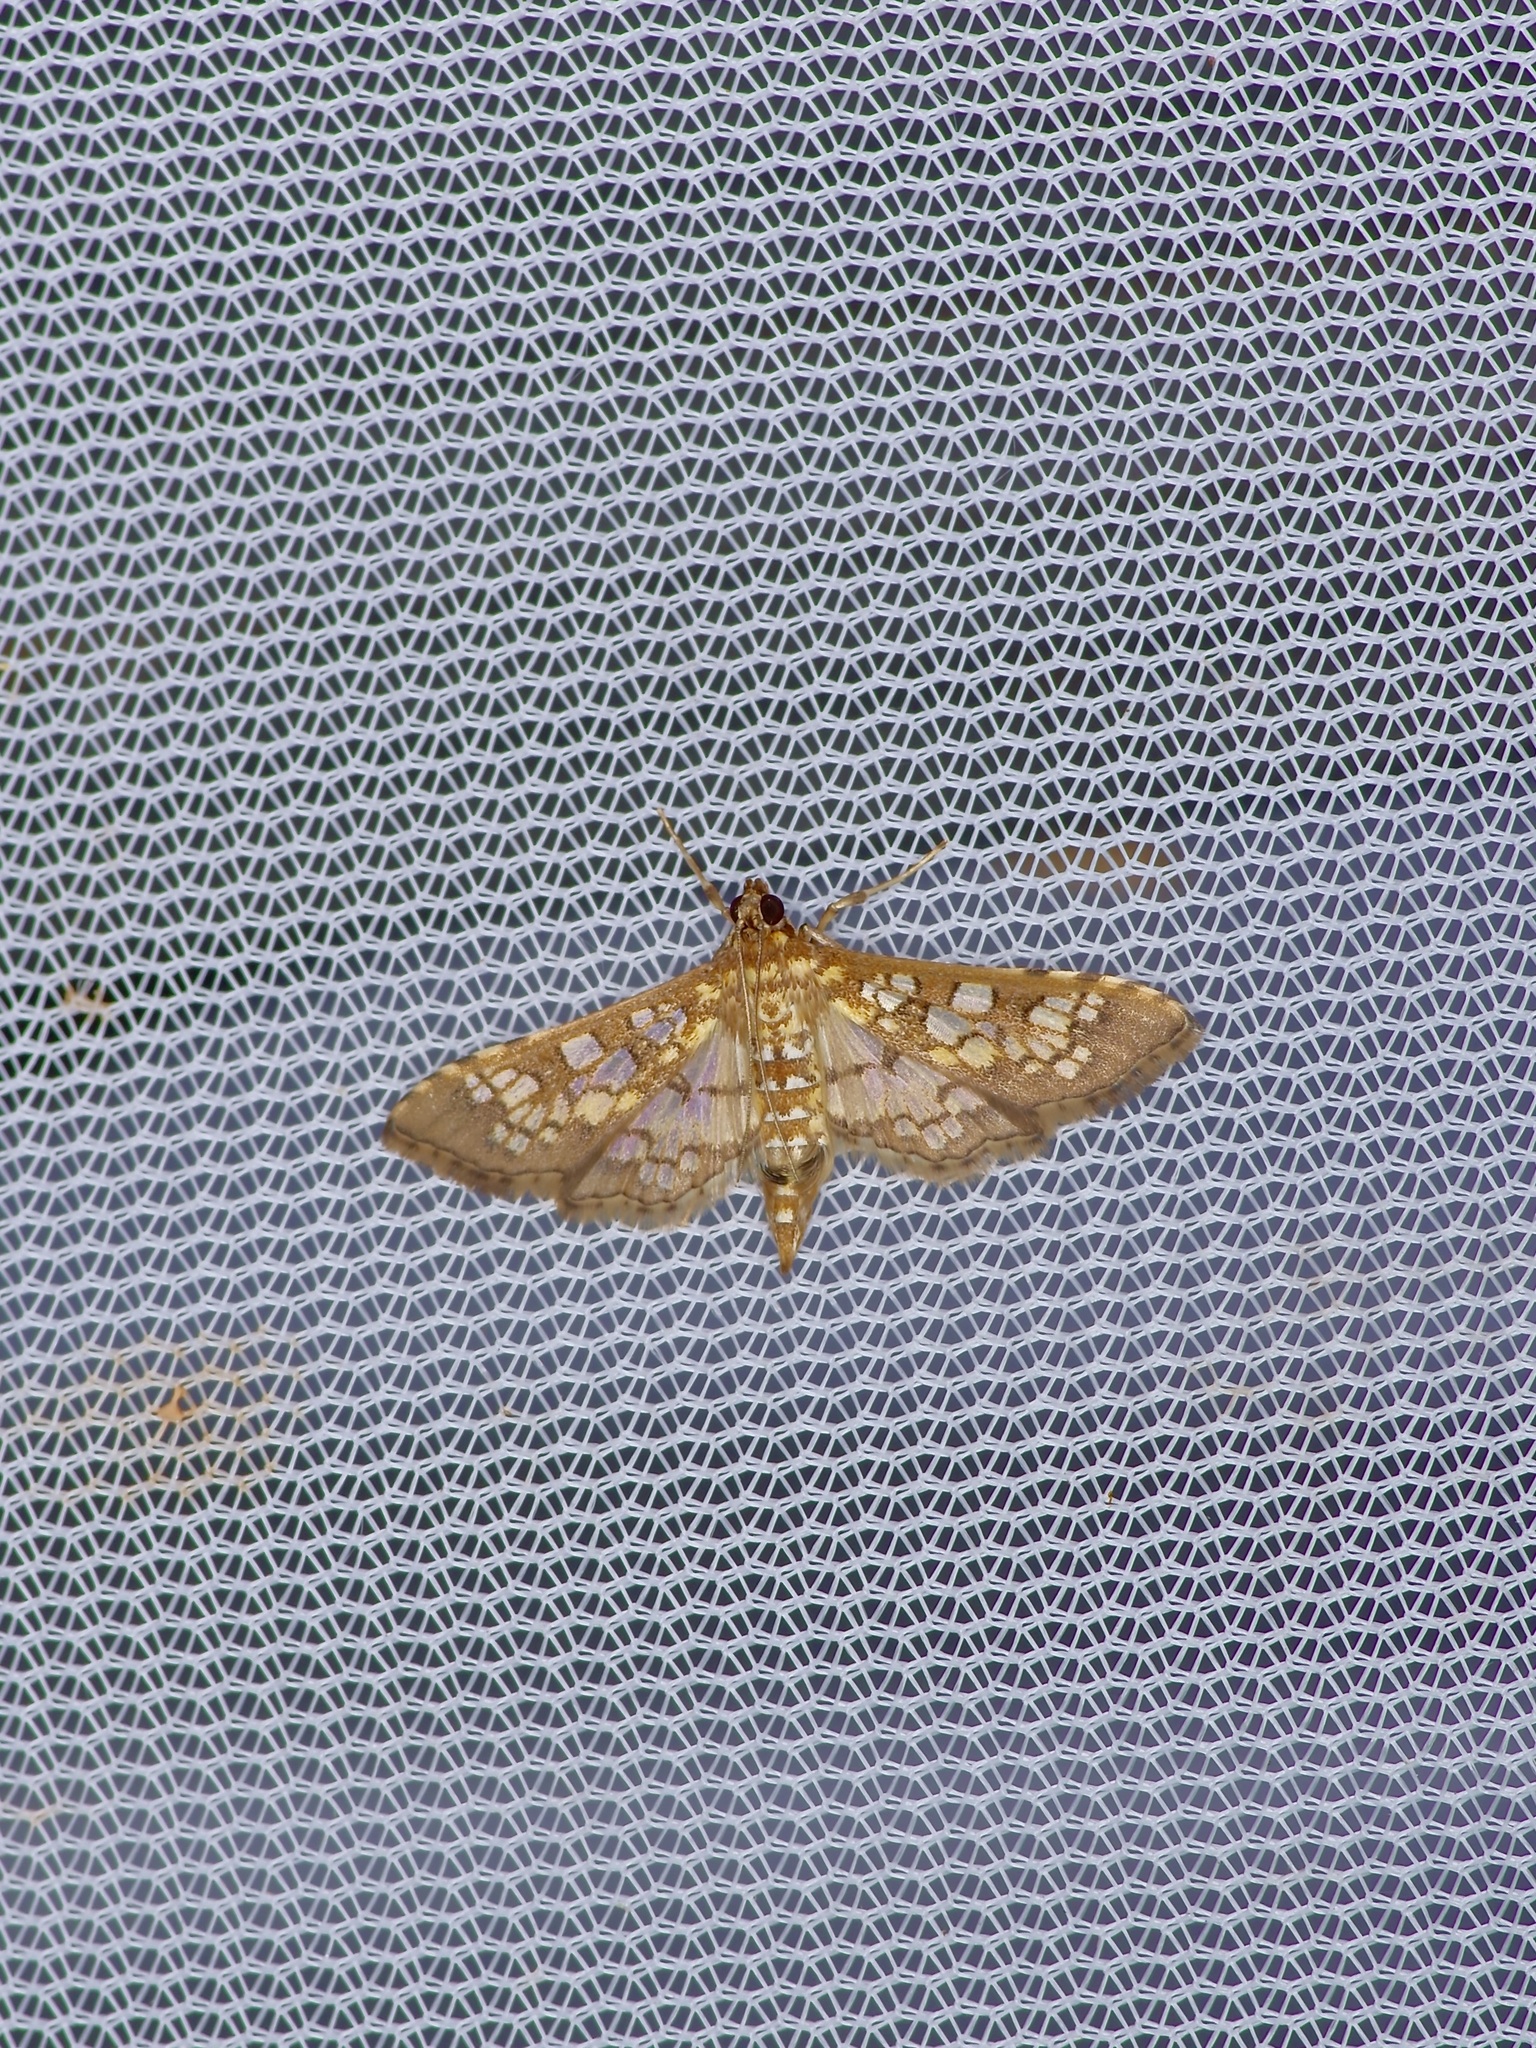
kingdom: Animalia
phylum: Arthropoda
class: Insecta
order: Lepidoptera
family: Crambidae
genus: Samea
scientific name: Samea ecclesialis
